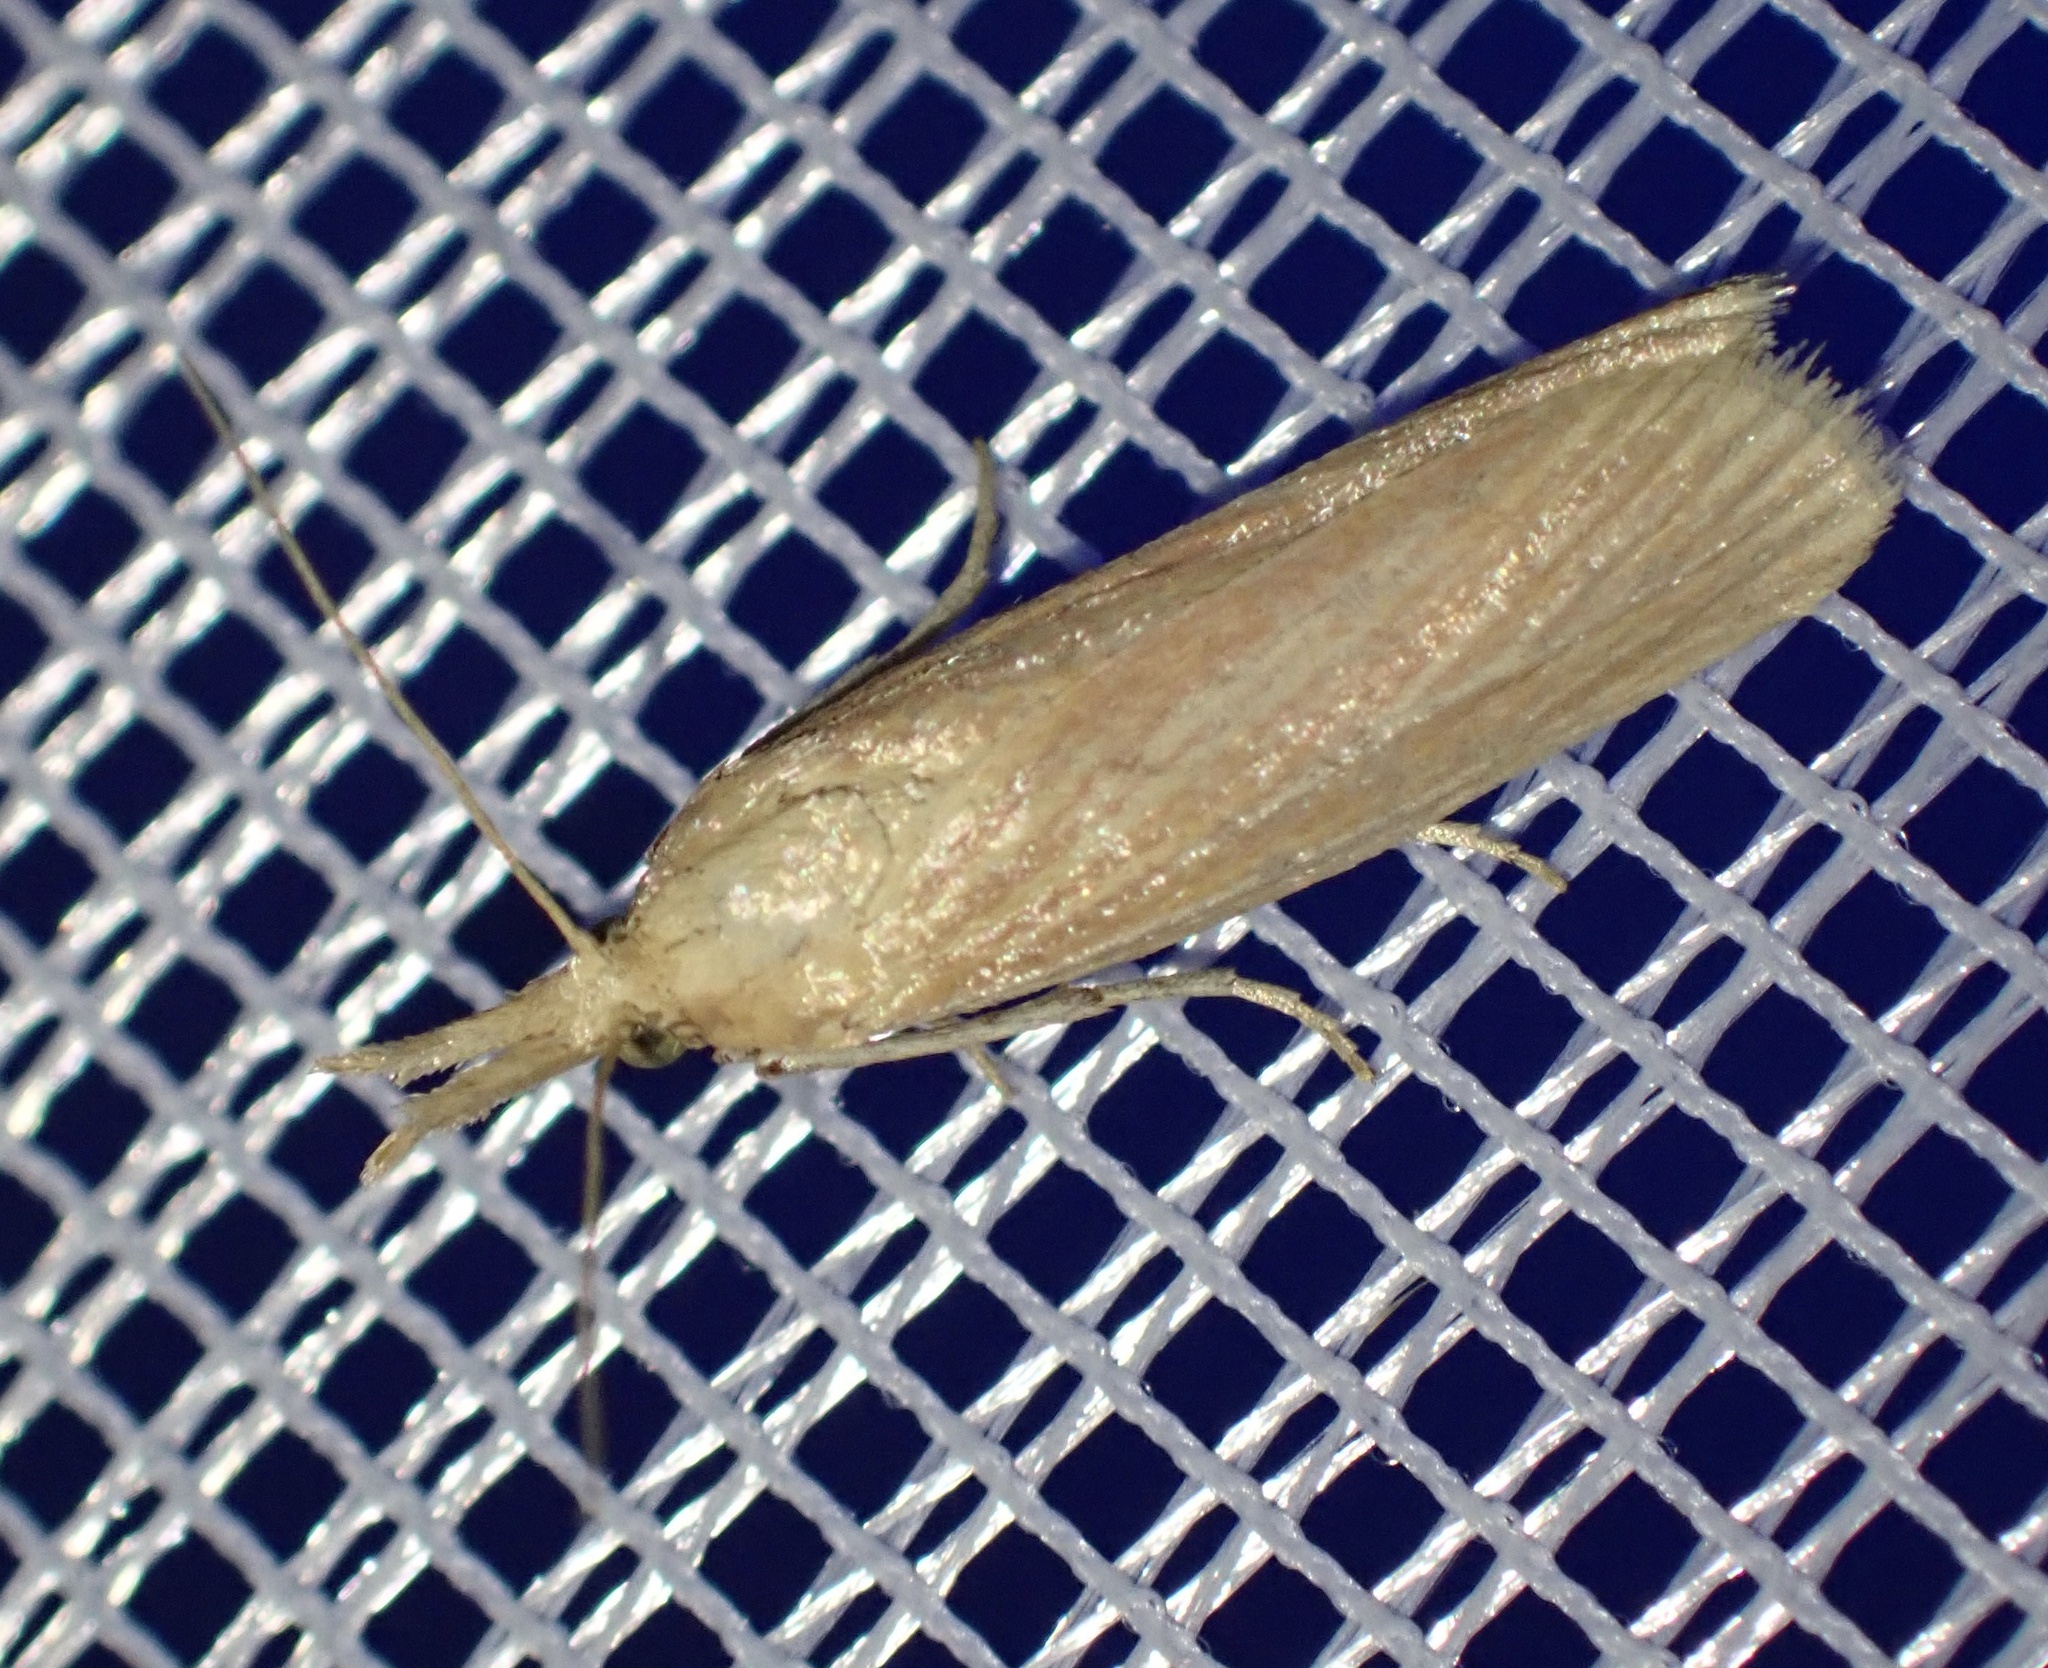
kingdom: Animalia
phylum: Arthropoda
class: Insecta
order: Lepidoptera
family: Pyralidae
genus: Hypsotropa
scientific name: Hypsotropa gallohispanicella
